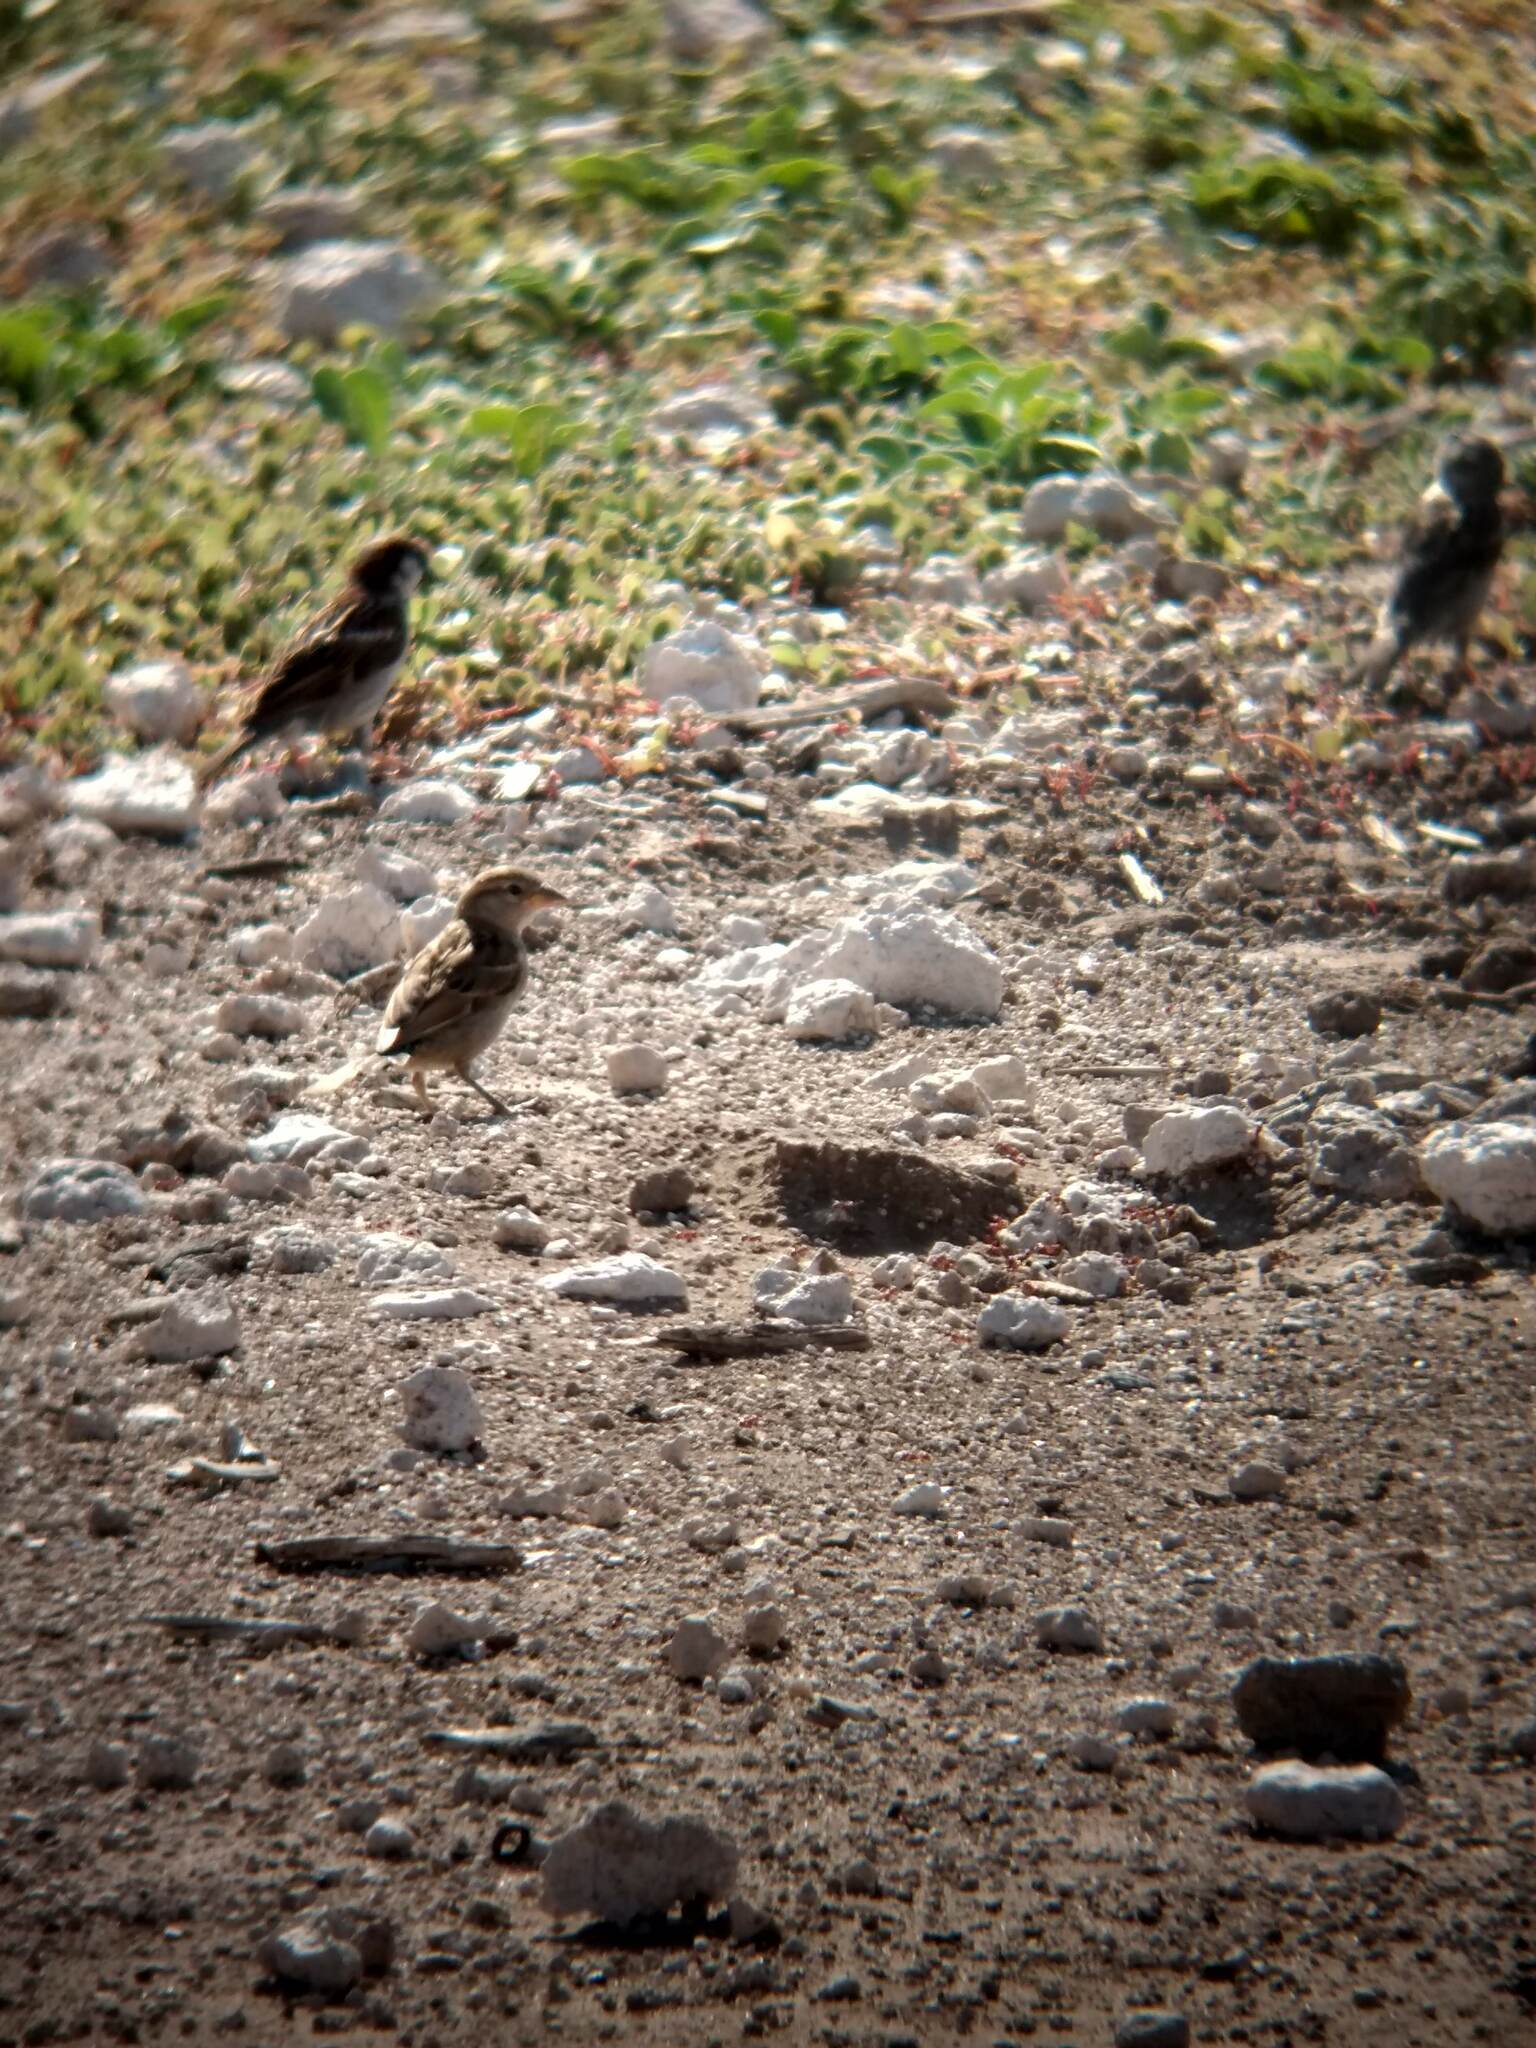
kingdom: Animalia
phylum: Chordata
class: Aves
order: Passeriformes
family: Passeridae
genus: Passer
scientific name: Passer domesticus
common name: House sparrow
